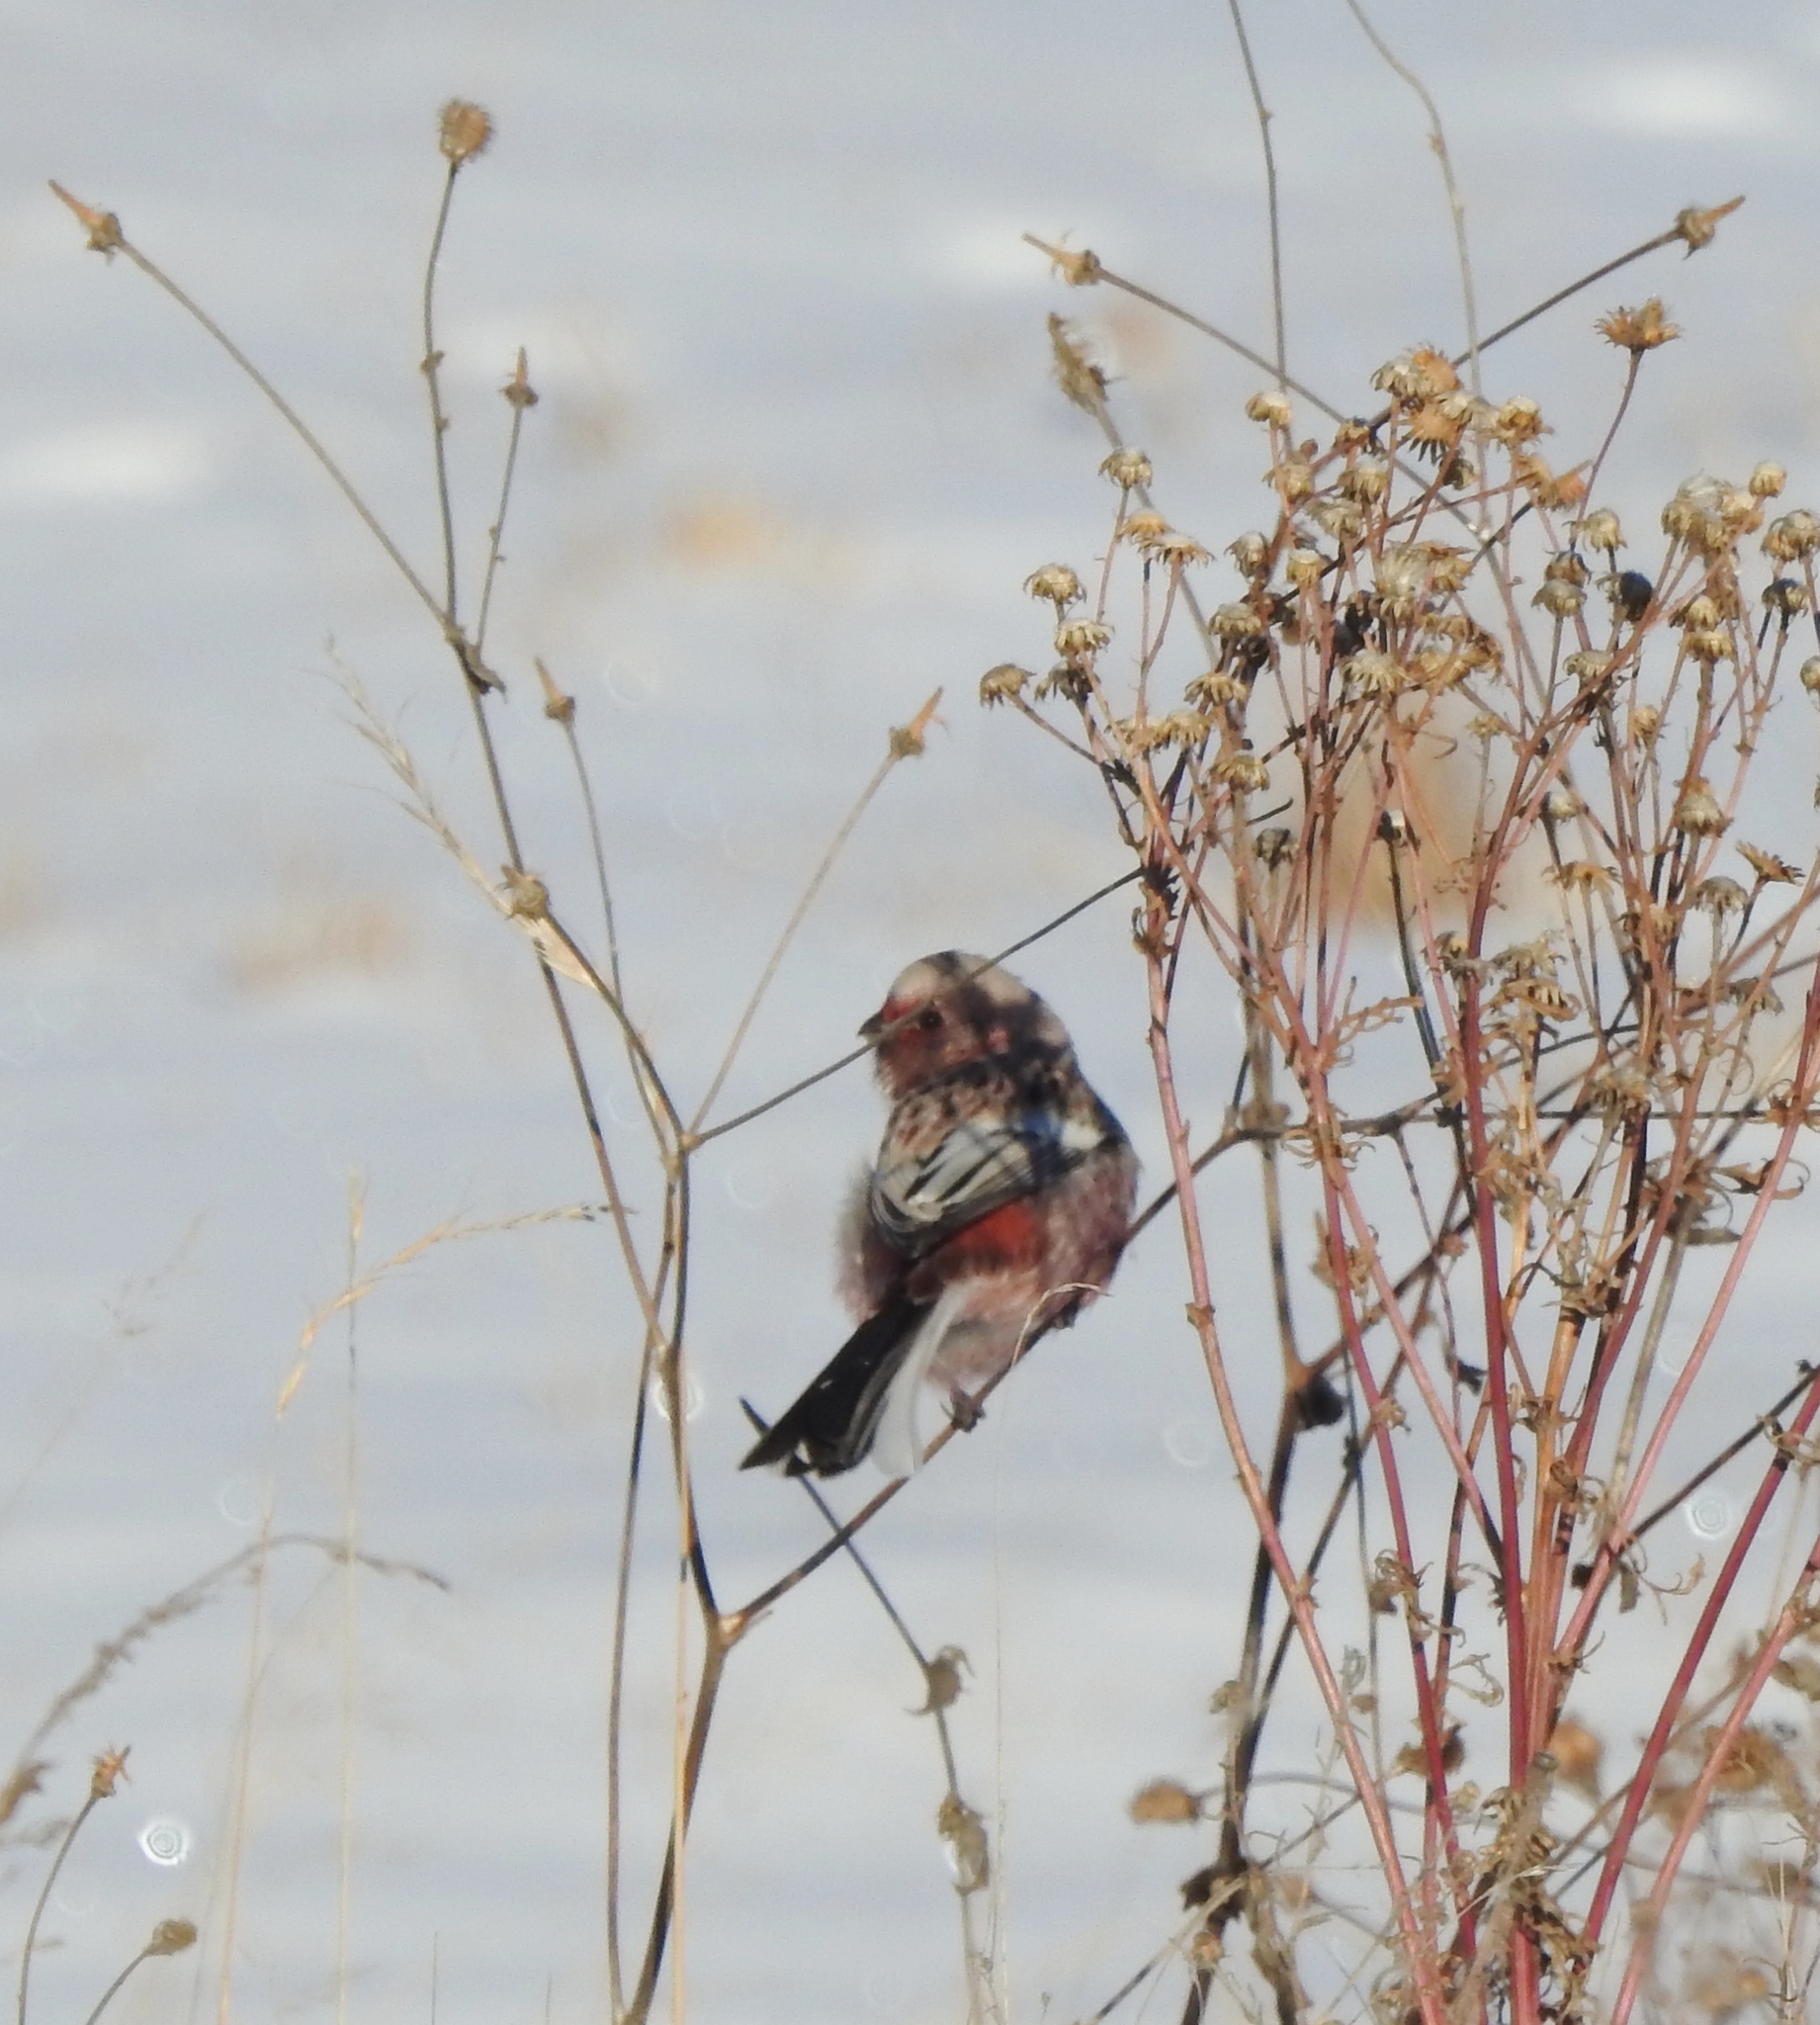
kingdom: Animalia
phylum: Chordata
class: Aves
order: Passeriformes
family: Fringillidae
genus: Carpodacus
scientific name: Carpodacus sibiricus
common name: Long-tailed rosefinch
